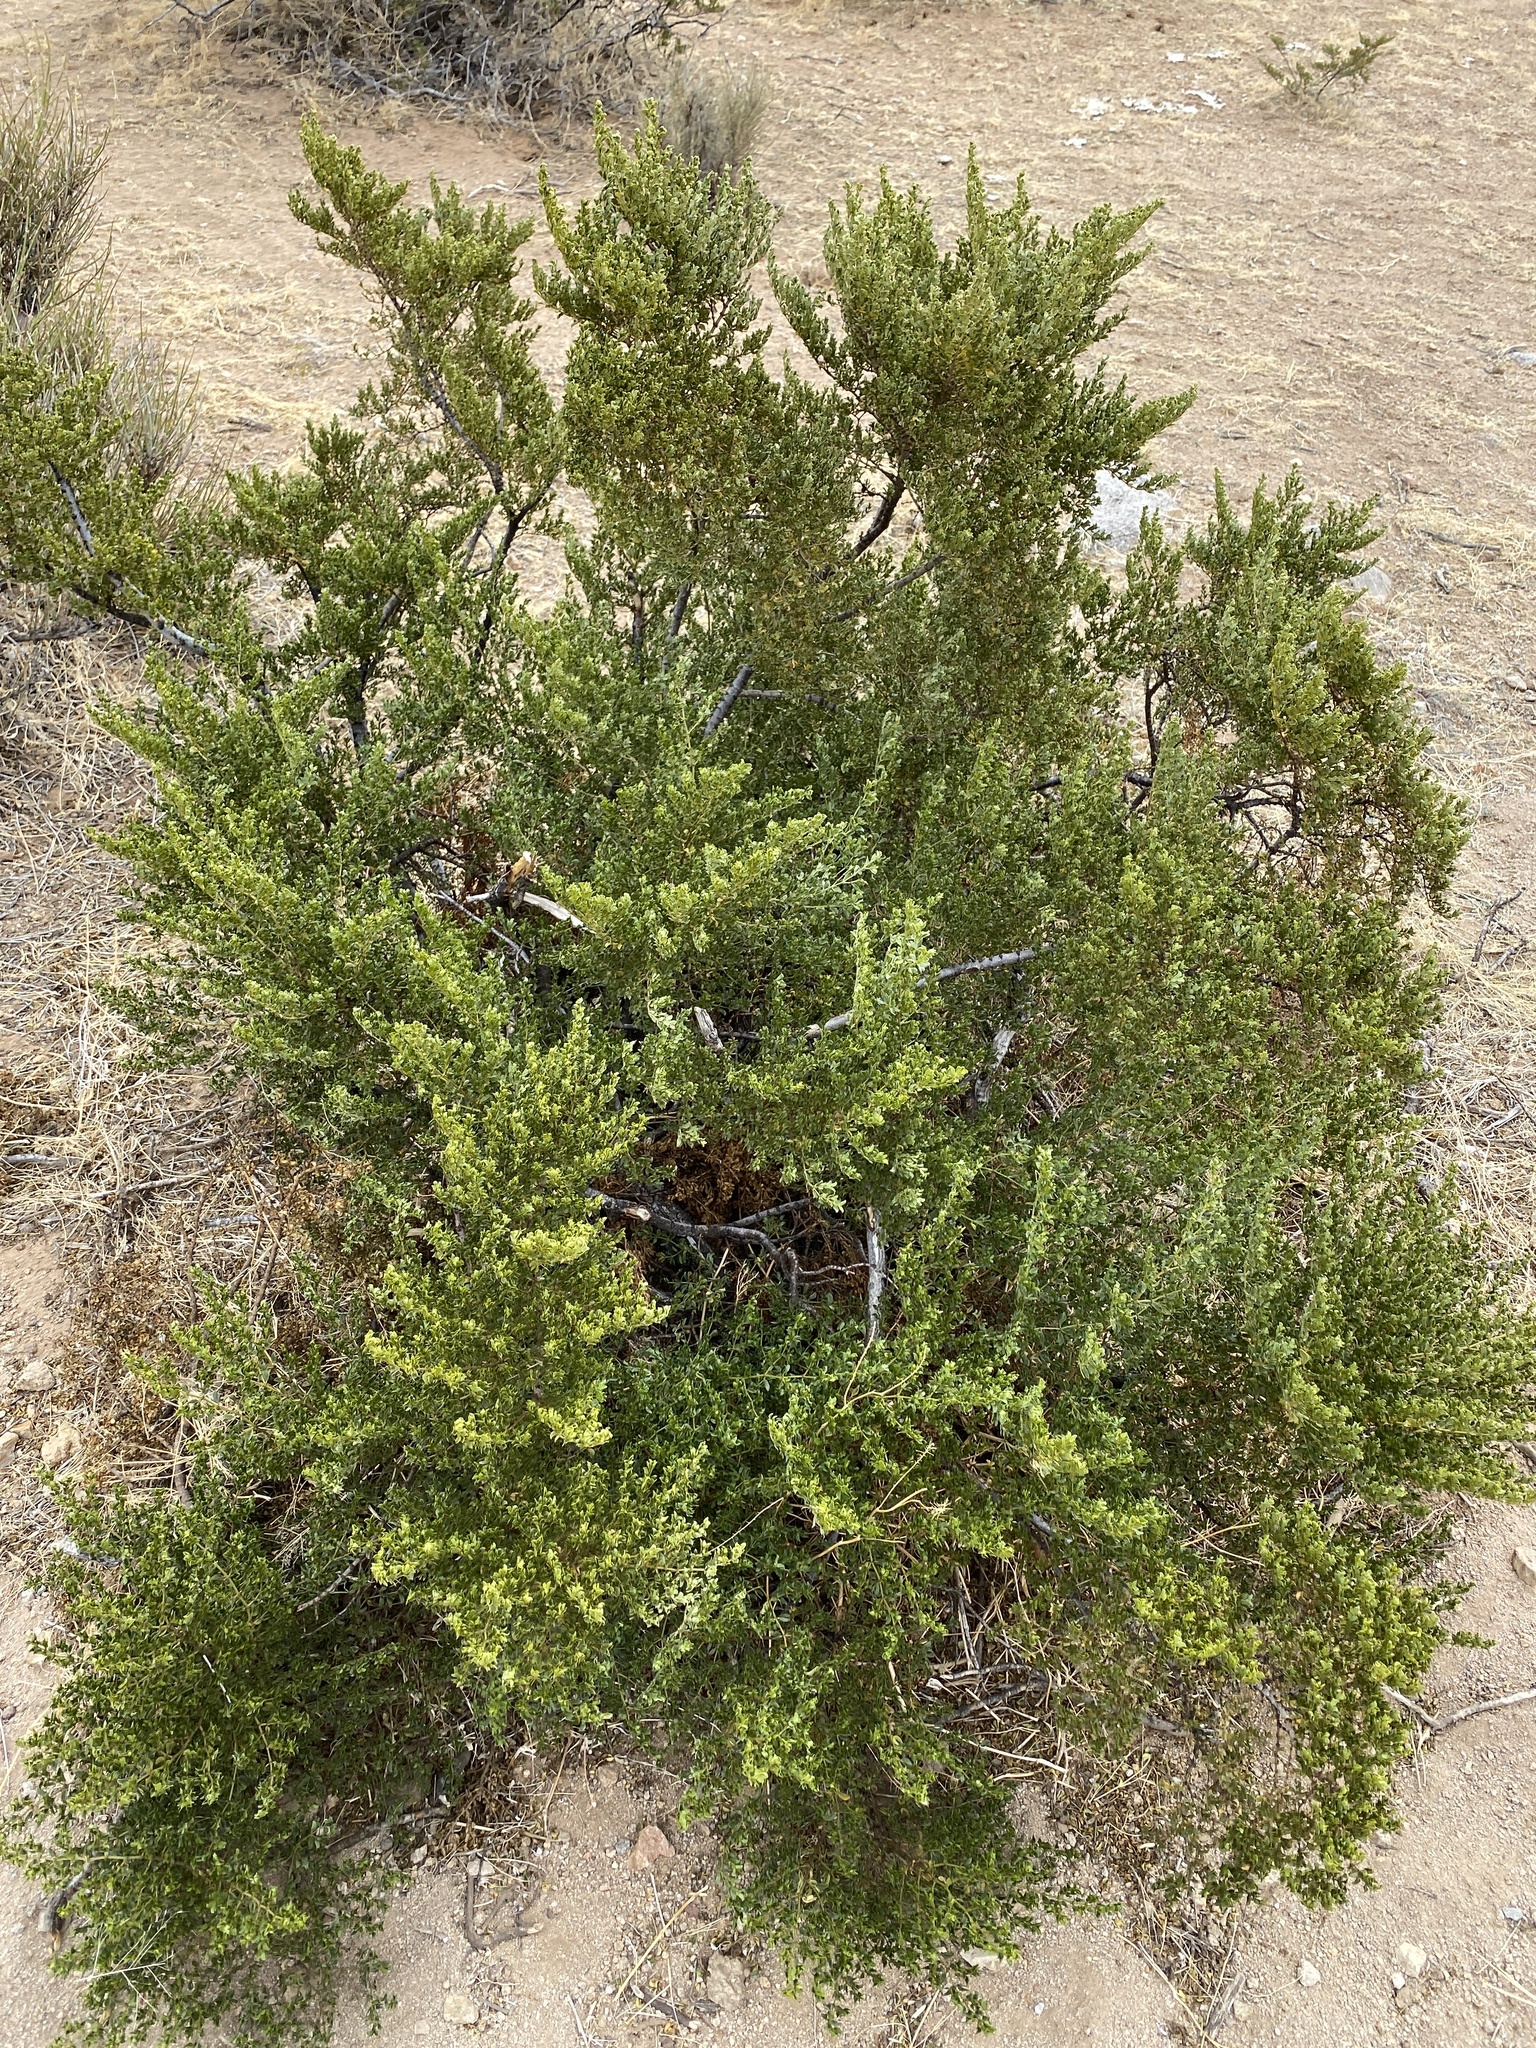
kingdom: Plantae
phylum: Tracheophyta
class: Magnoliopsida
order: Zygophyllales
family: Zygophyllaceae
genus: Larrea
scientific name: Larrea tridentata
